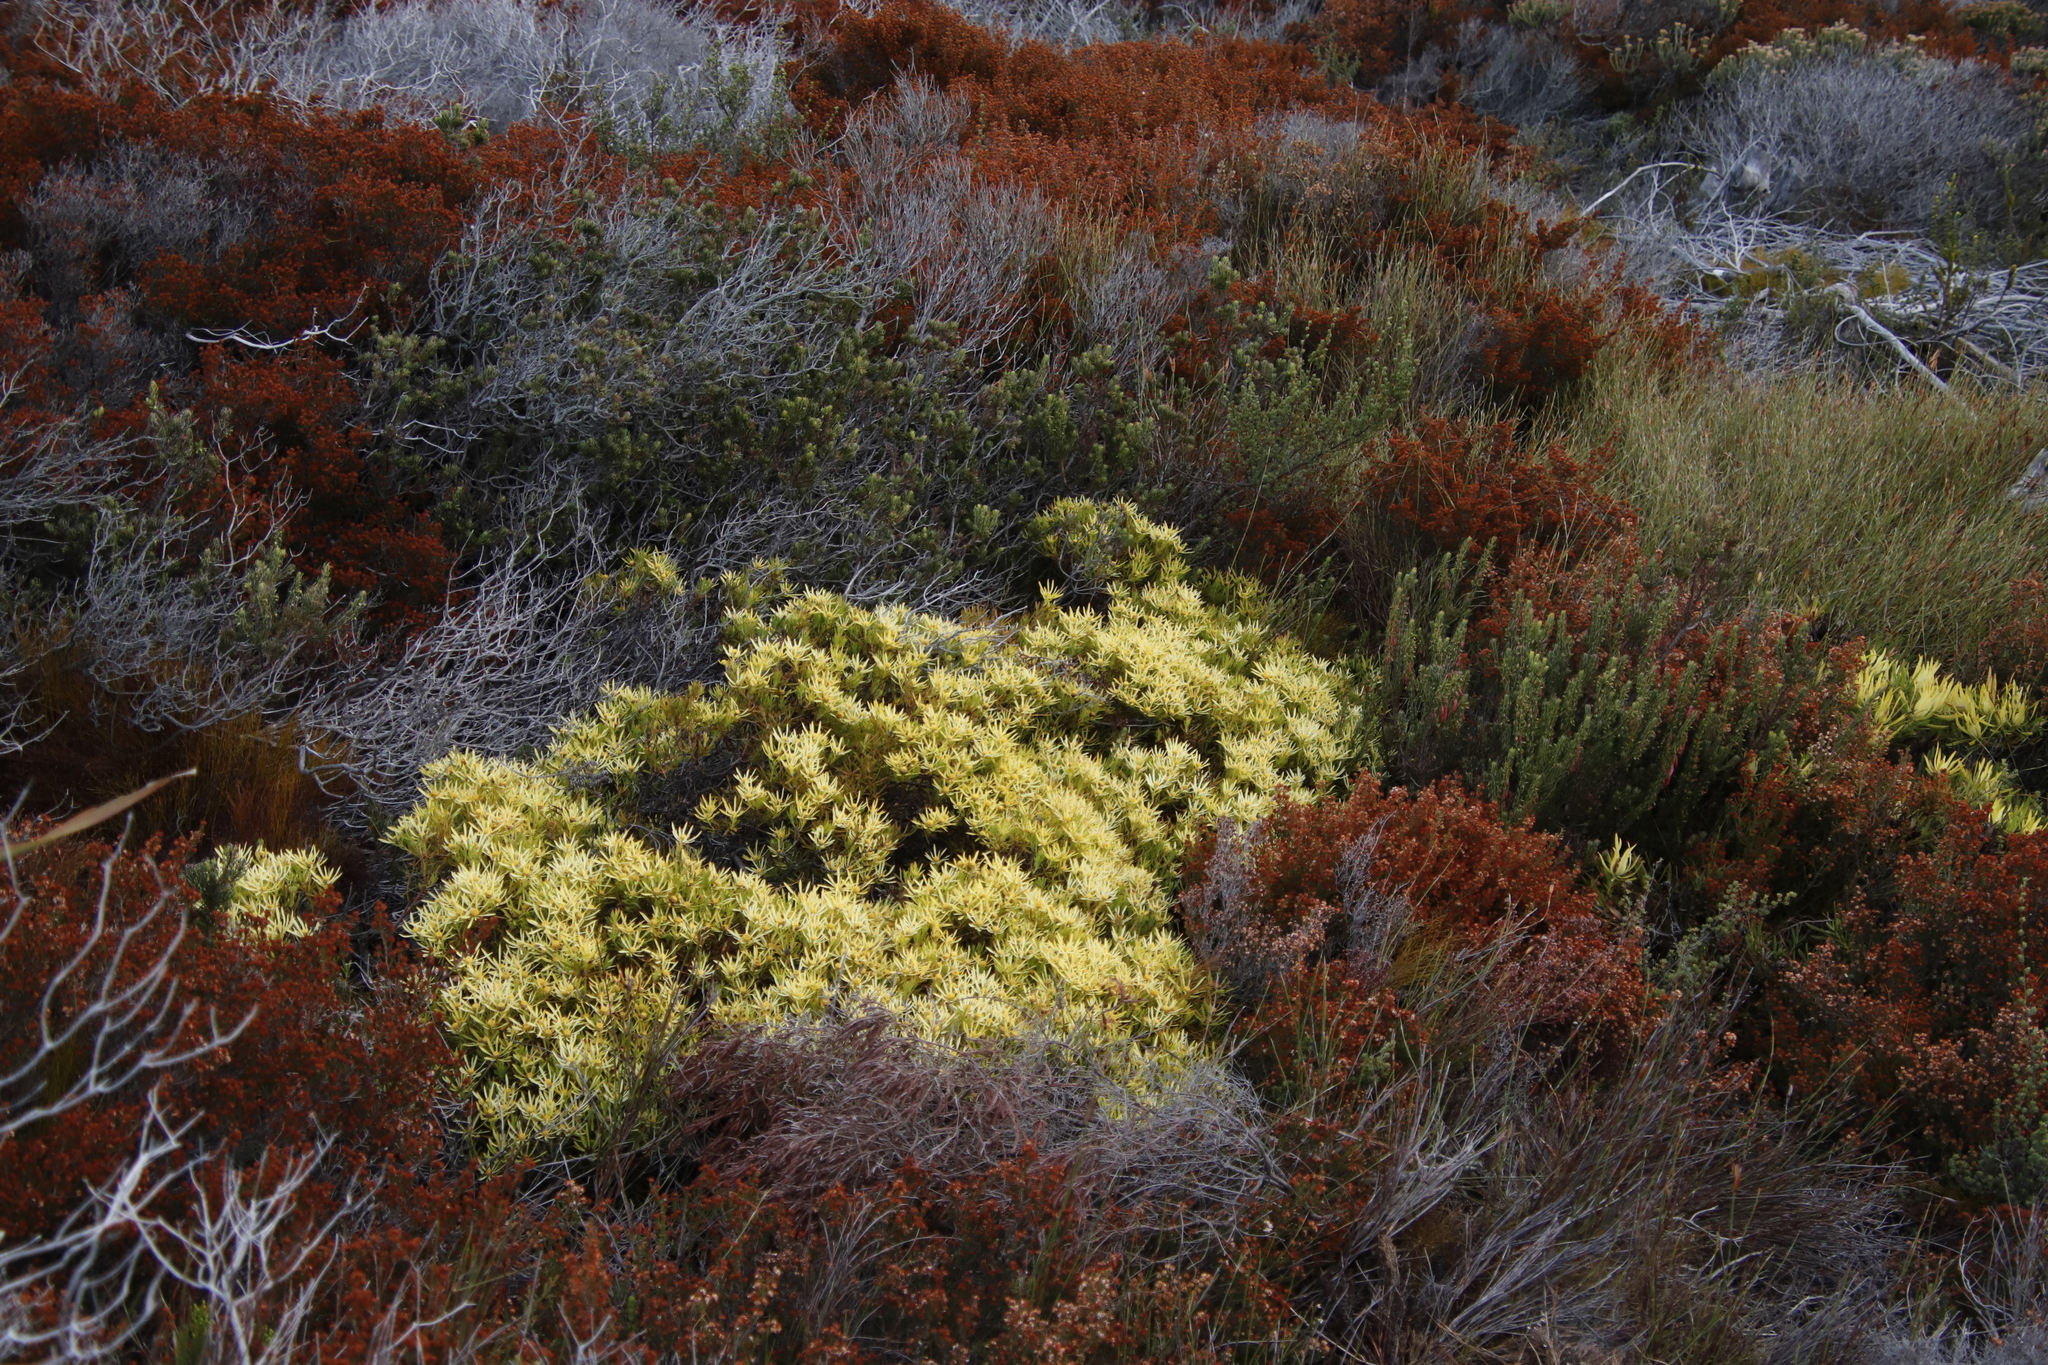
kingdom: Plantae
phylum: Tracheophyta
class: Magnoliopsida
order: Proteales
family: Proteaceae
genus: Leucadendron
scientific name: Leucadendron salignum
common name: Common sunshine conebush
